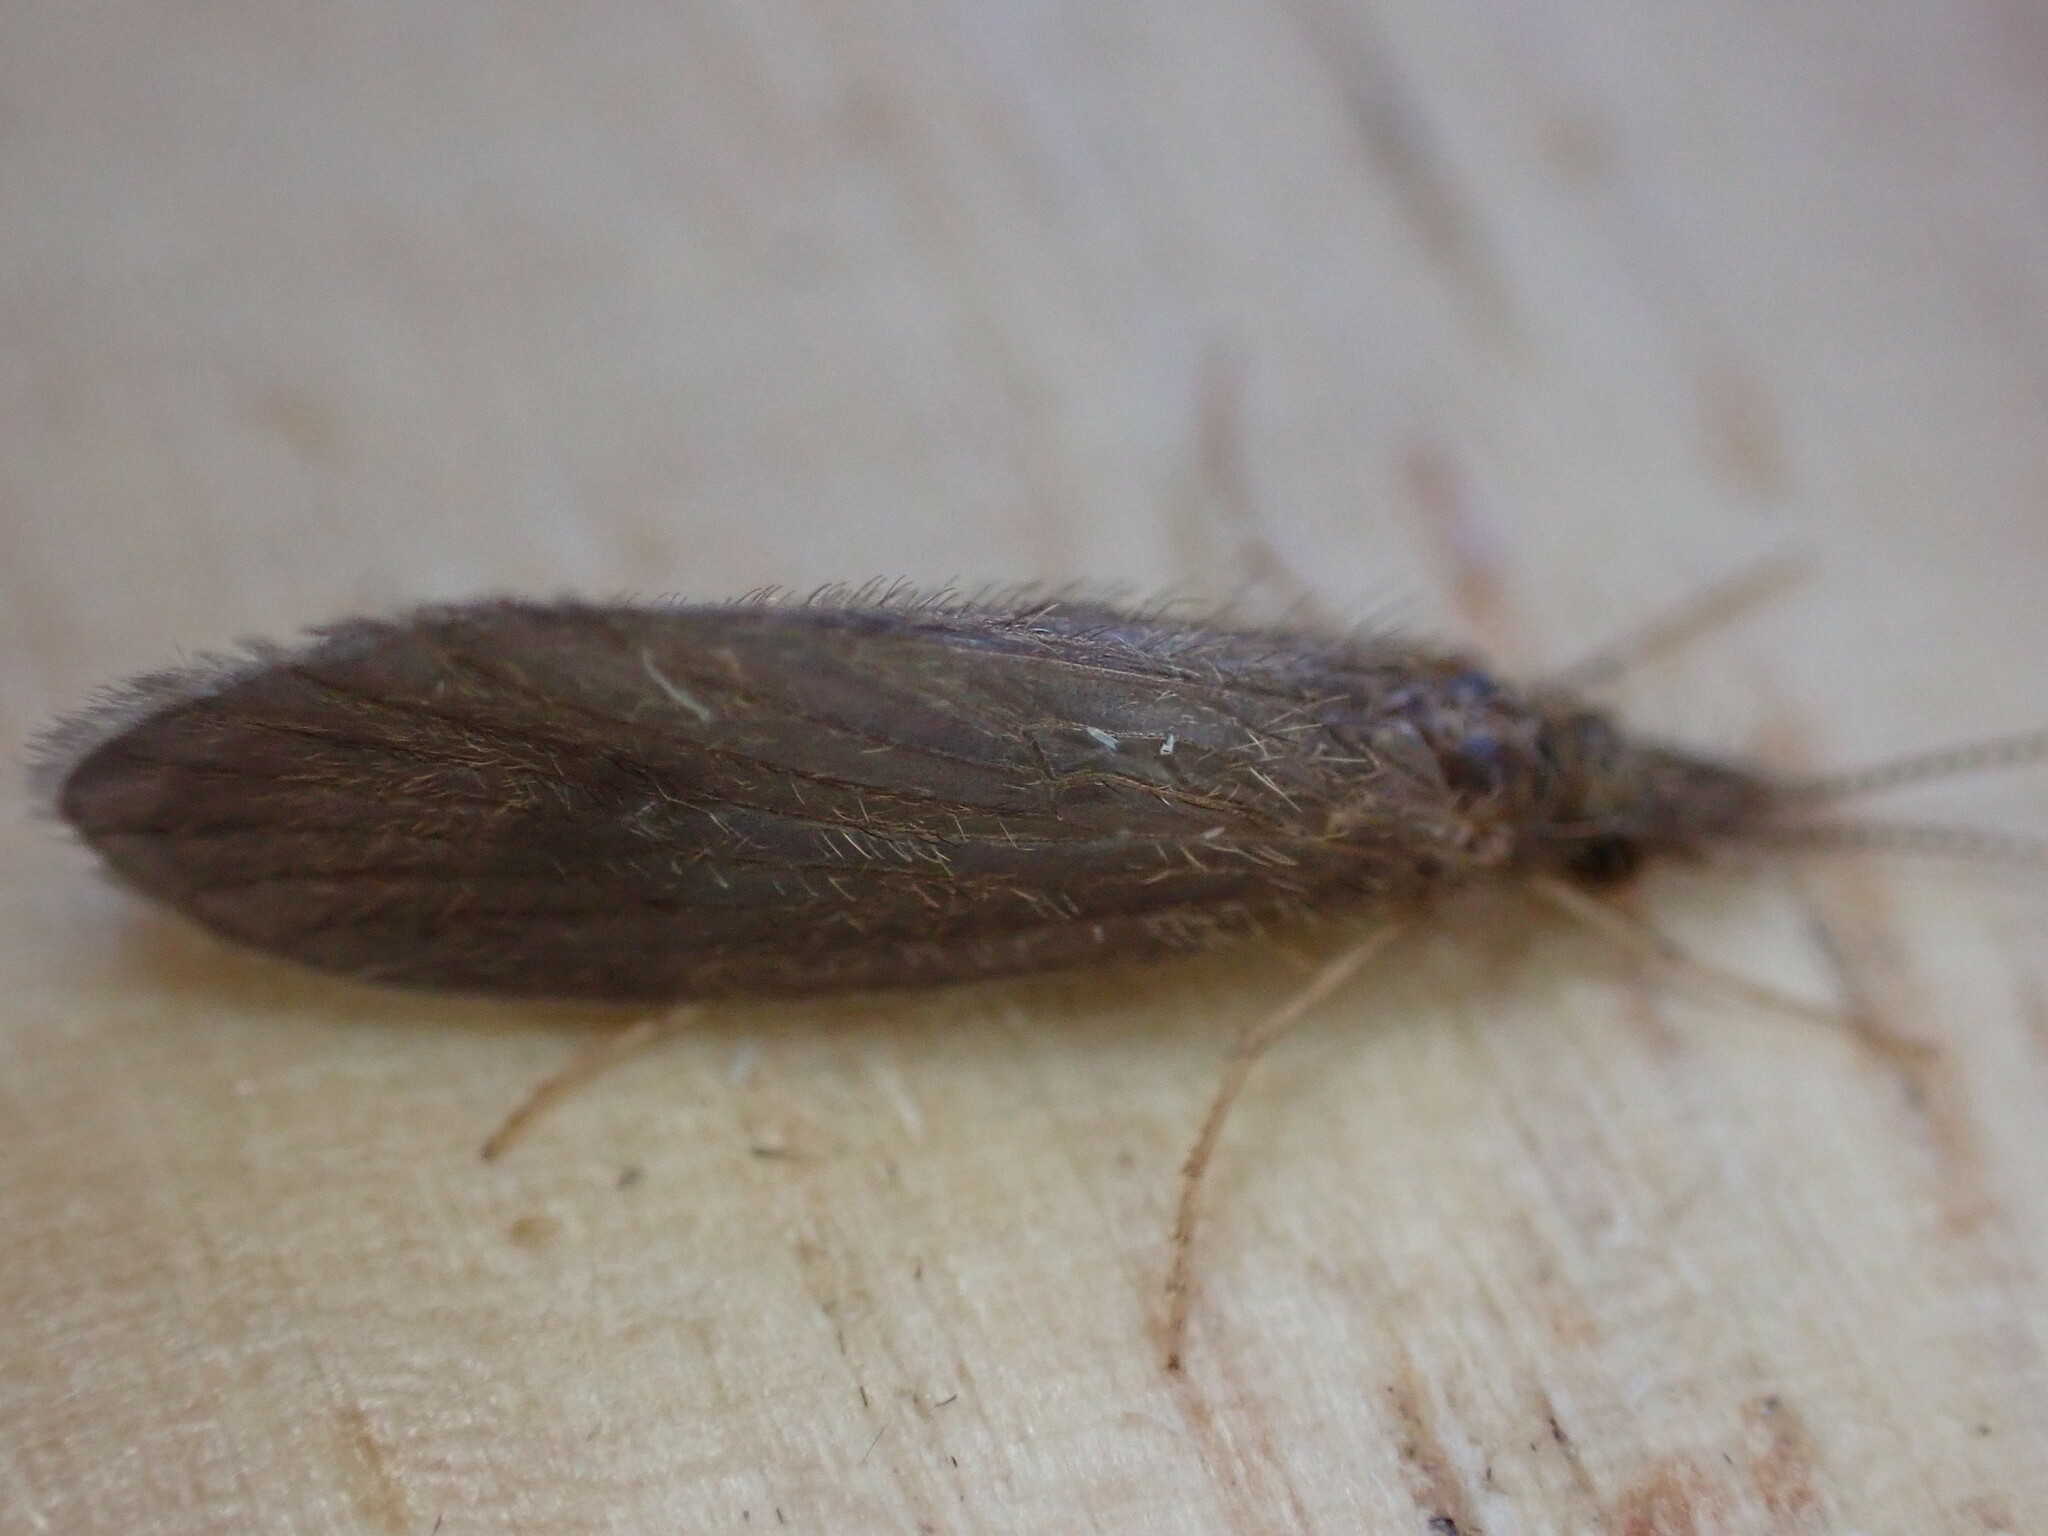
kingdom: Animalia
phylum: Arthropoda
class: Insecta
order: Trichoptera
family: Lepidostomatidae
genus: Lepidostoma
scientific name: Lepidostoma hirtum
